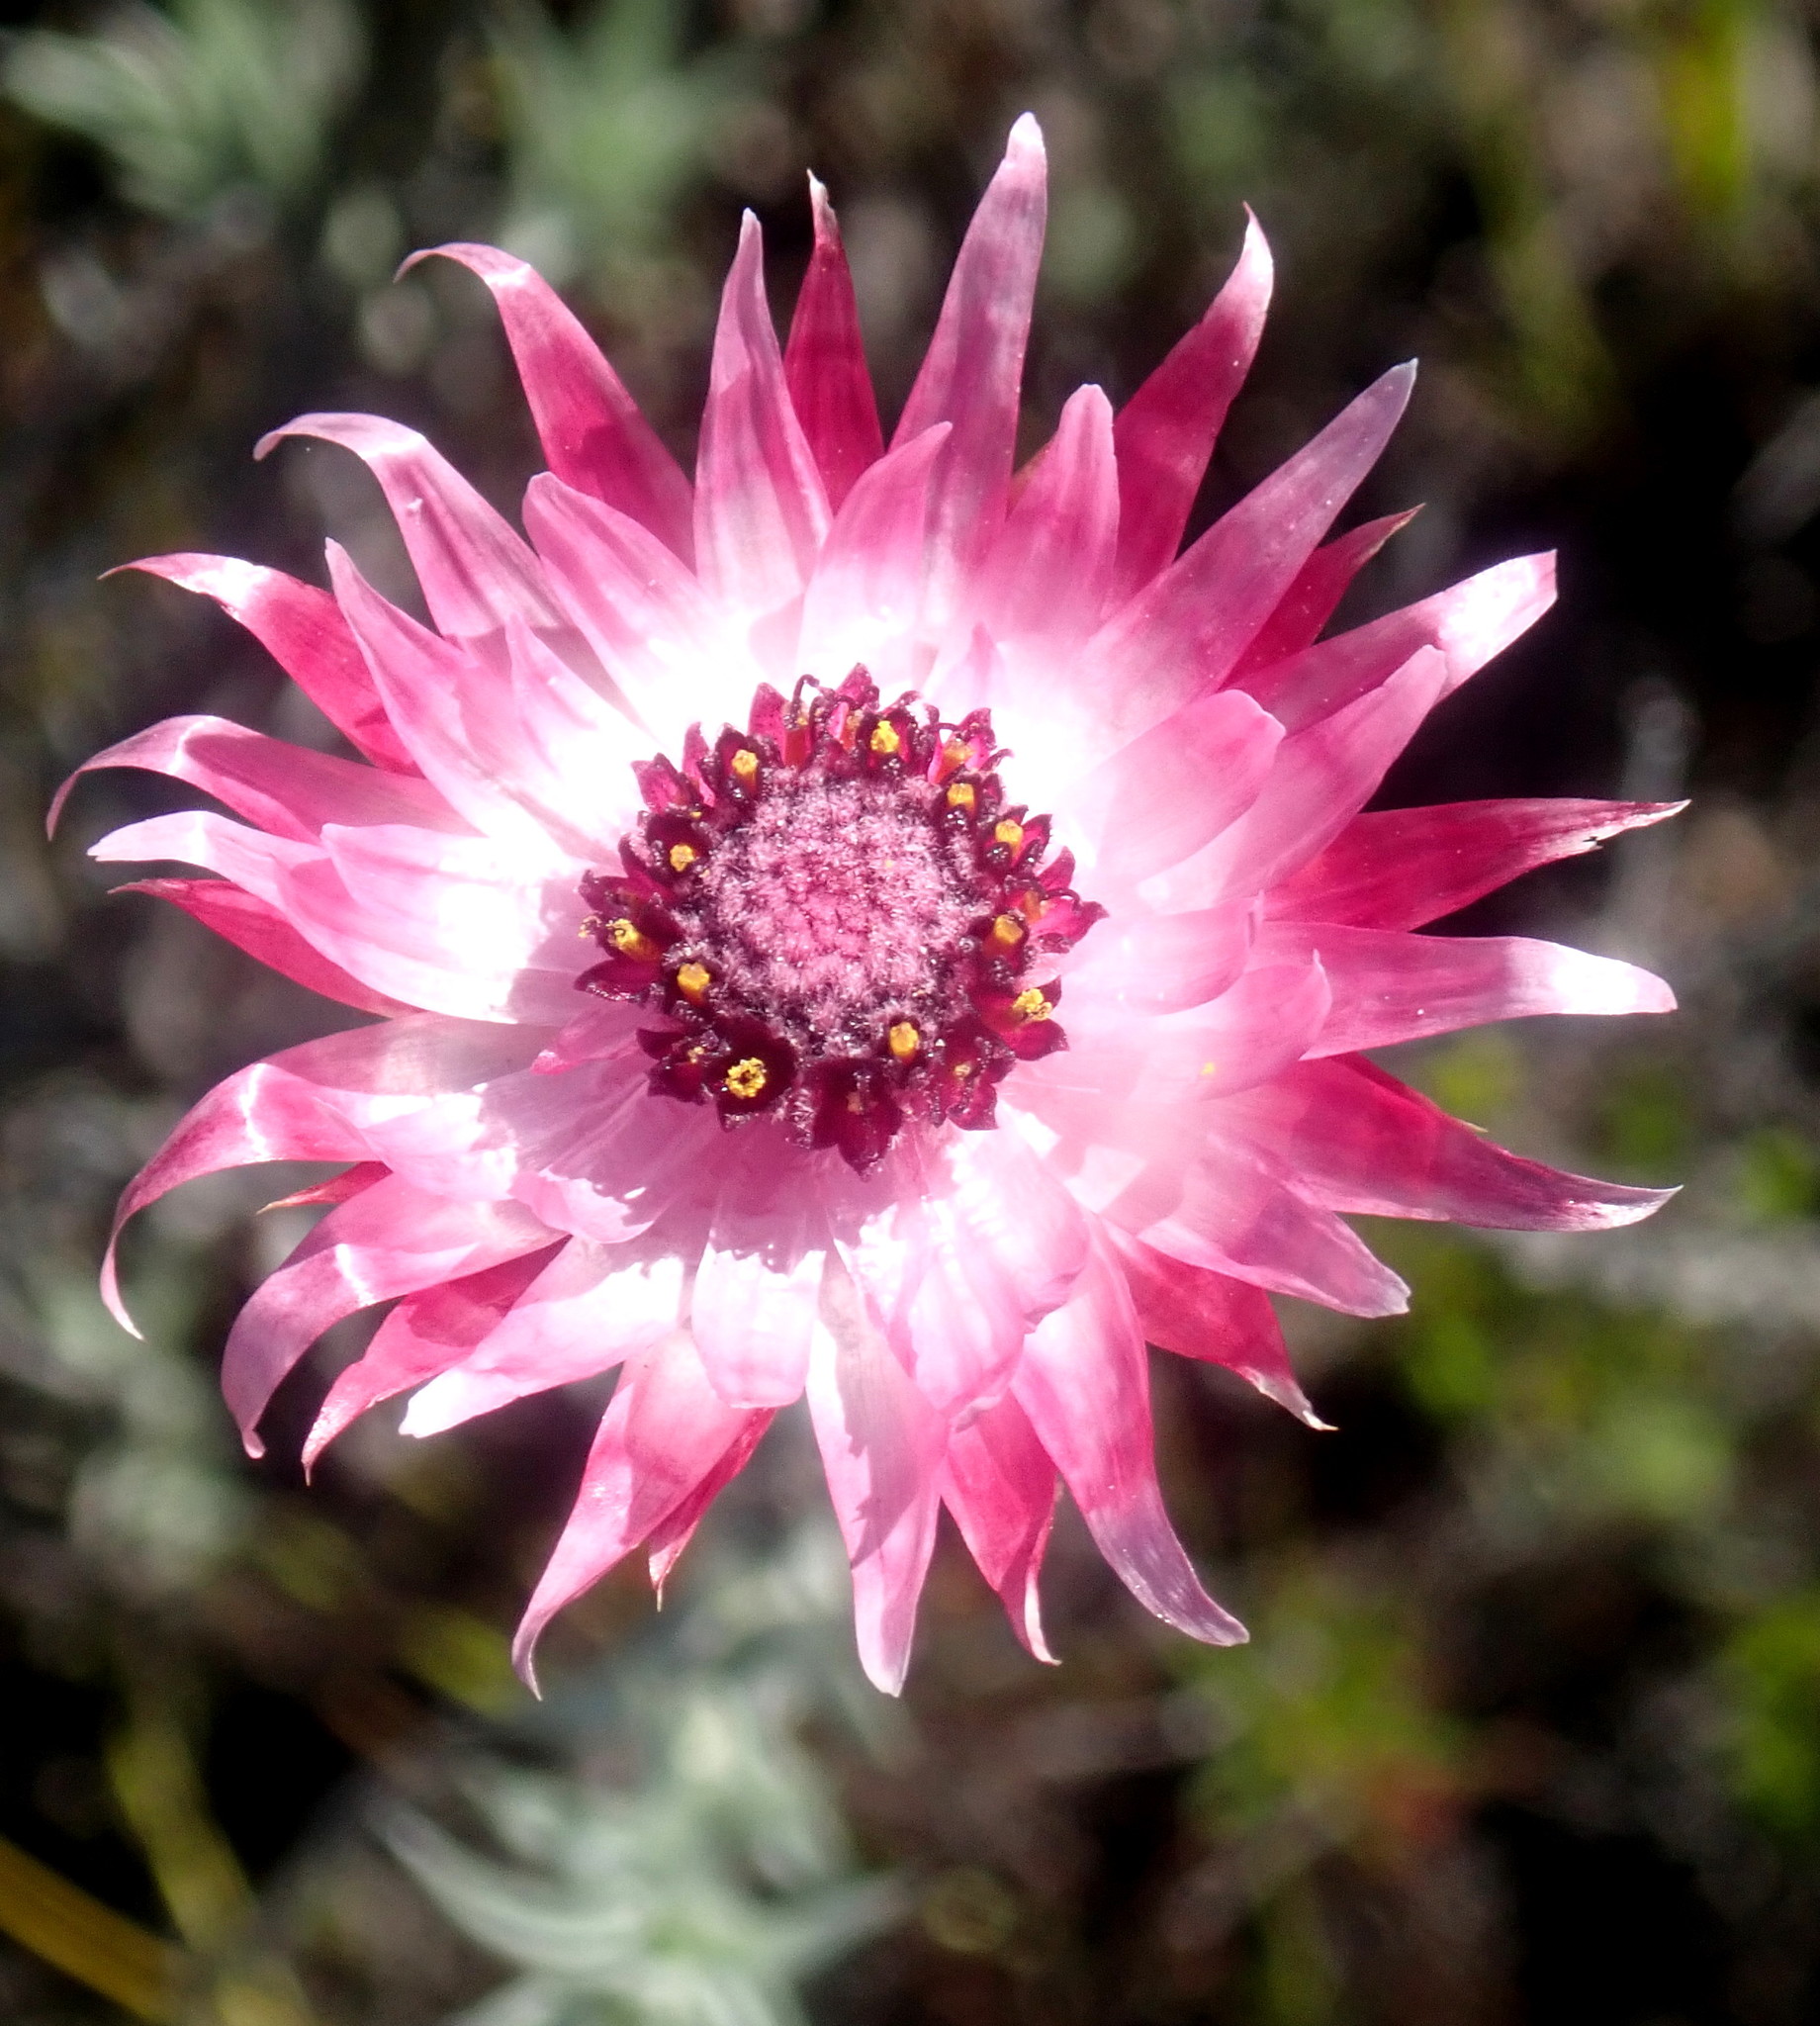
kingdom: Plantae
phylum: Tracheophyta
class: Magnoliopsida
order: Asterales
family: Asteraceae
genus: Syncarpha
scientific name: Syncarpha canescens
